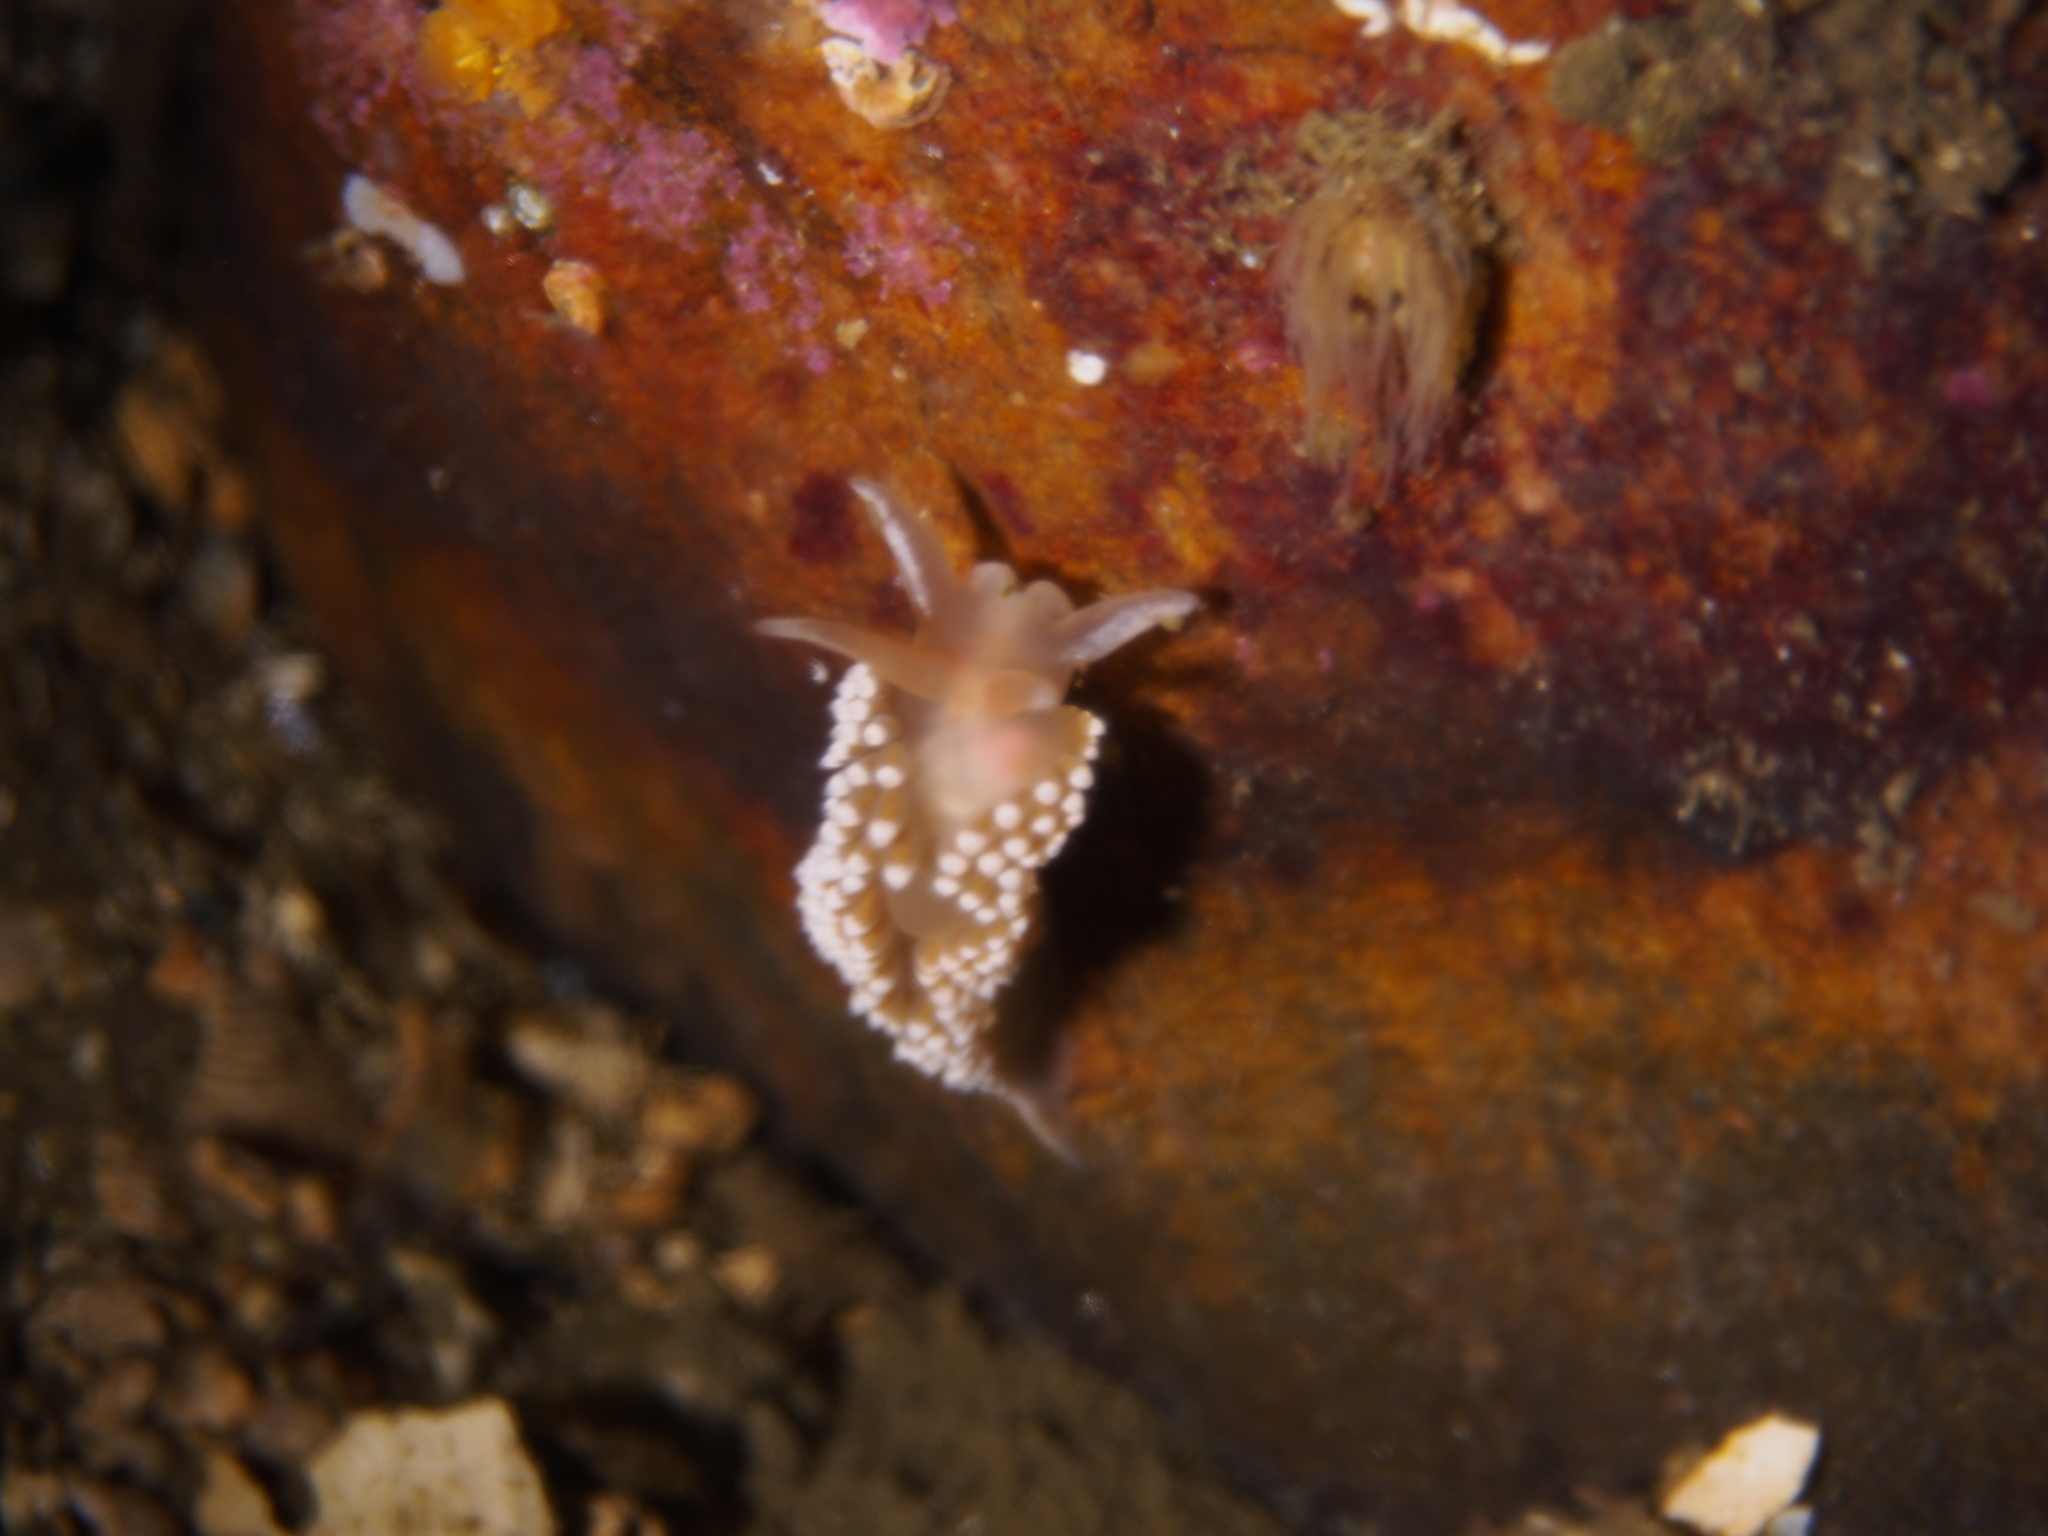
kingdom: Animalia
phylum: Mollusca
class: Gastropoda
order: Nudibranchia
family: Coryphellidae
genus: Coryphella
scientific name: Coryphella verrucosa
